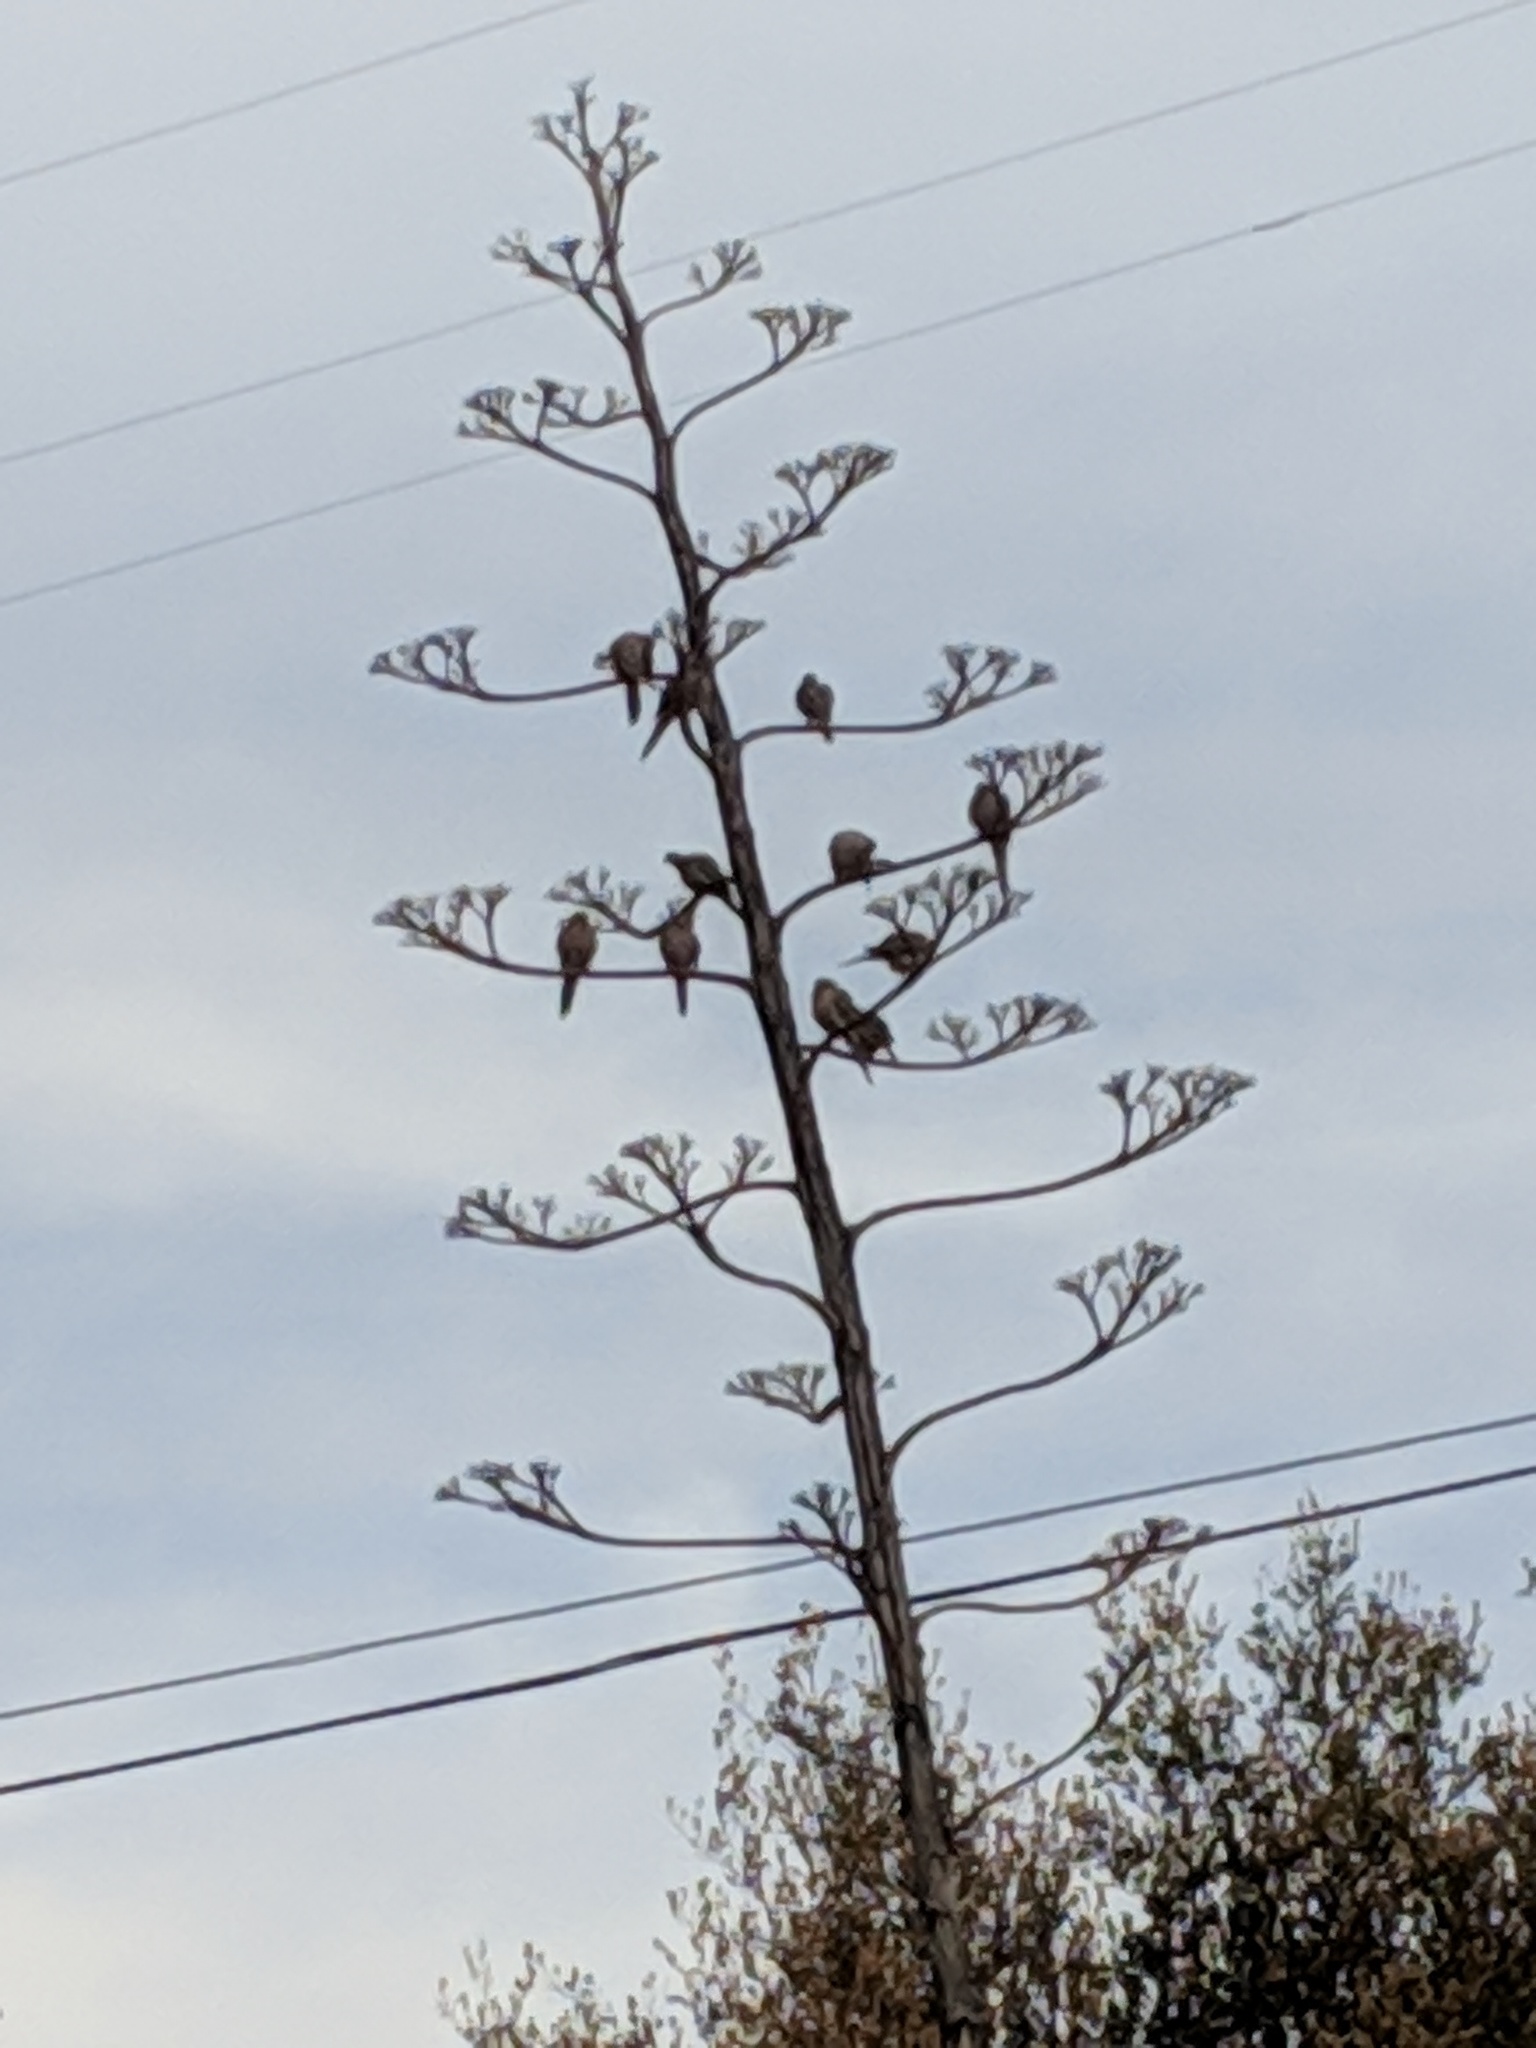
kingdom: Animalia
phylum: Chordata
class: Aves
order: Columbiformes
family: Columbidae
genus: Zenaida
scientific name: Zenaida macroura
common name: Mourning dove
